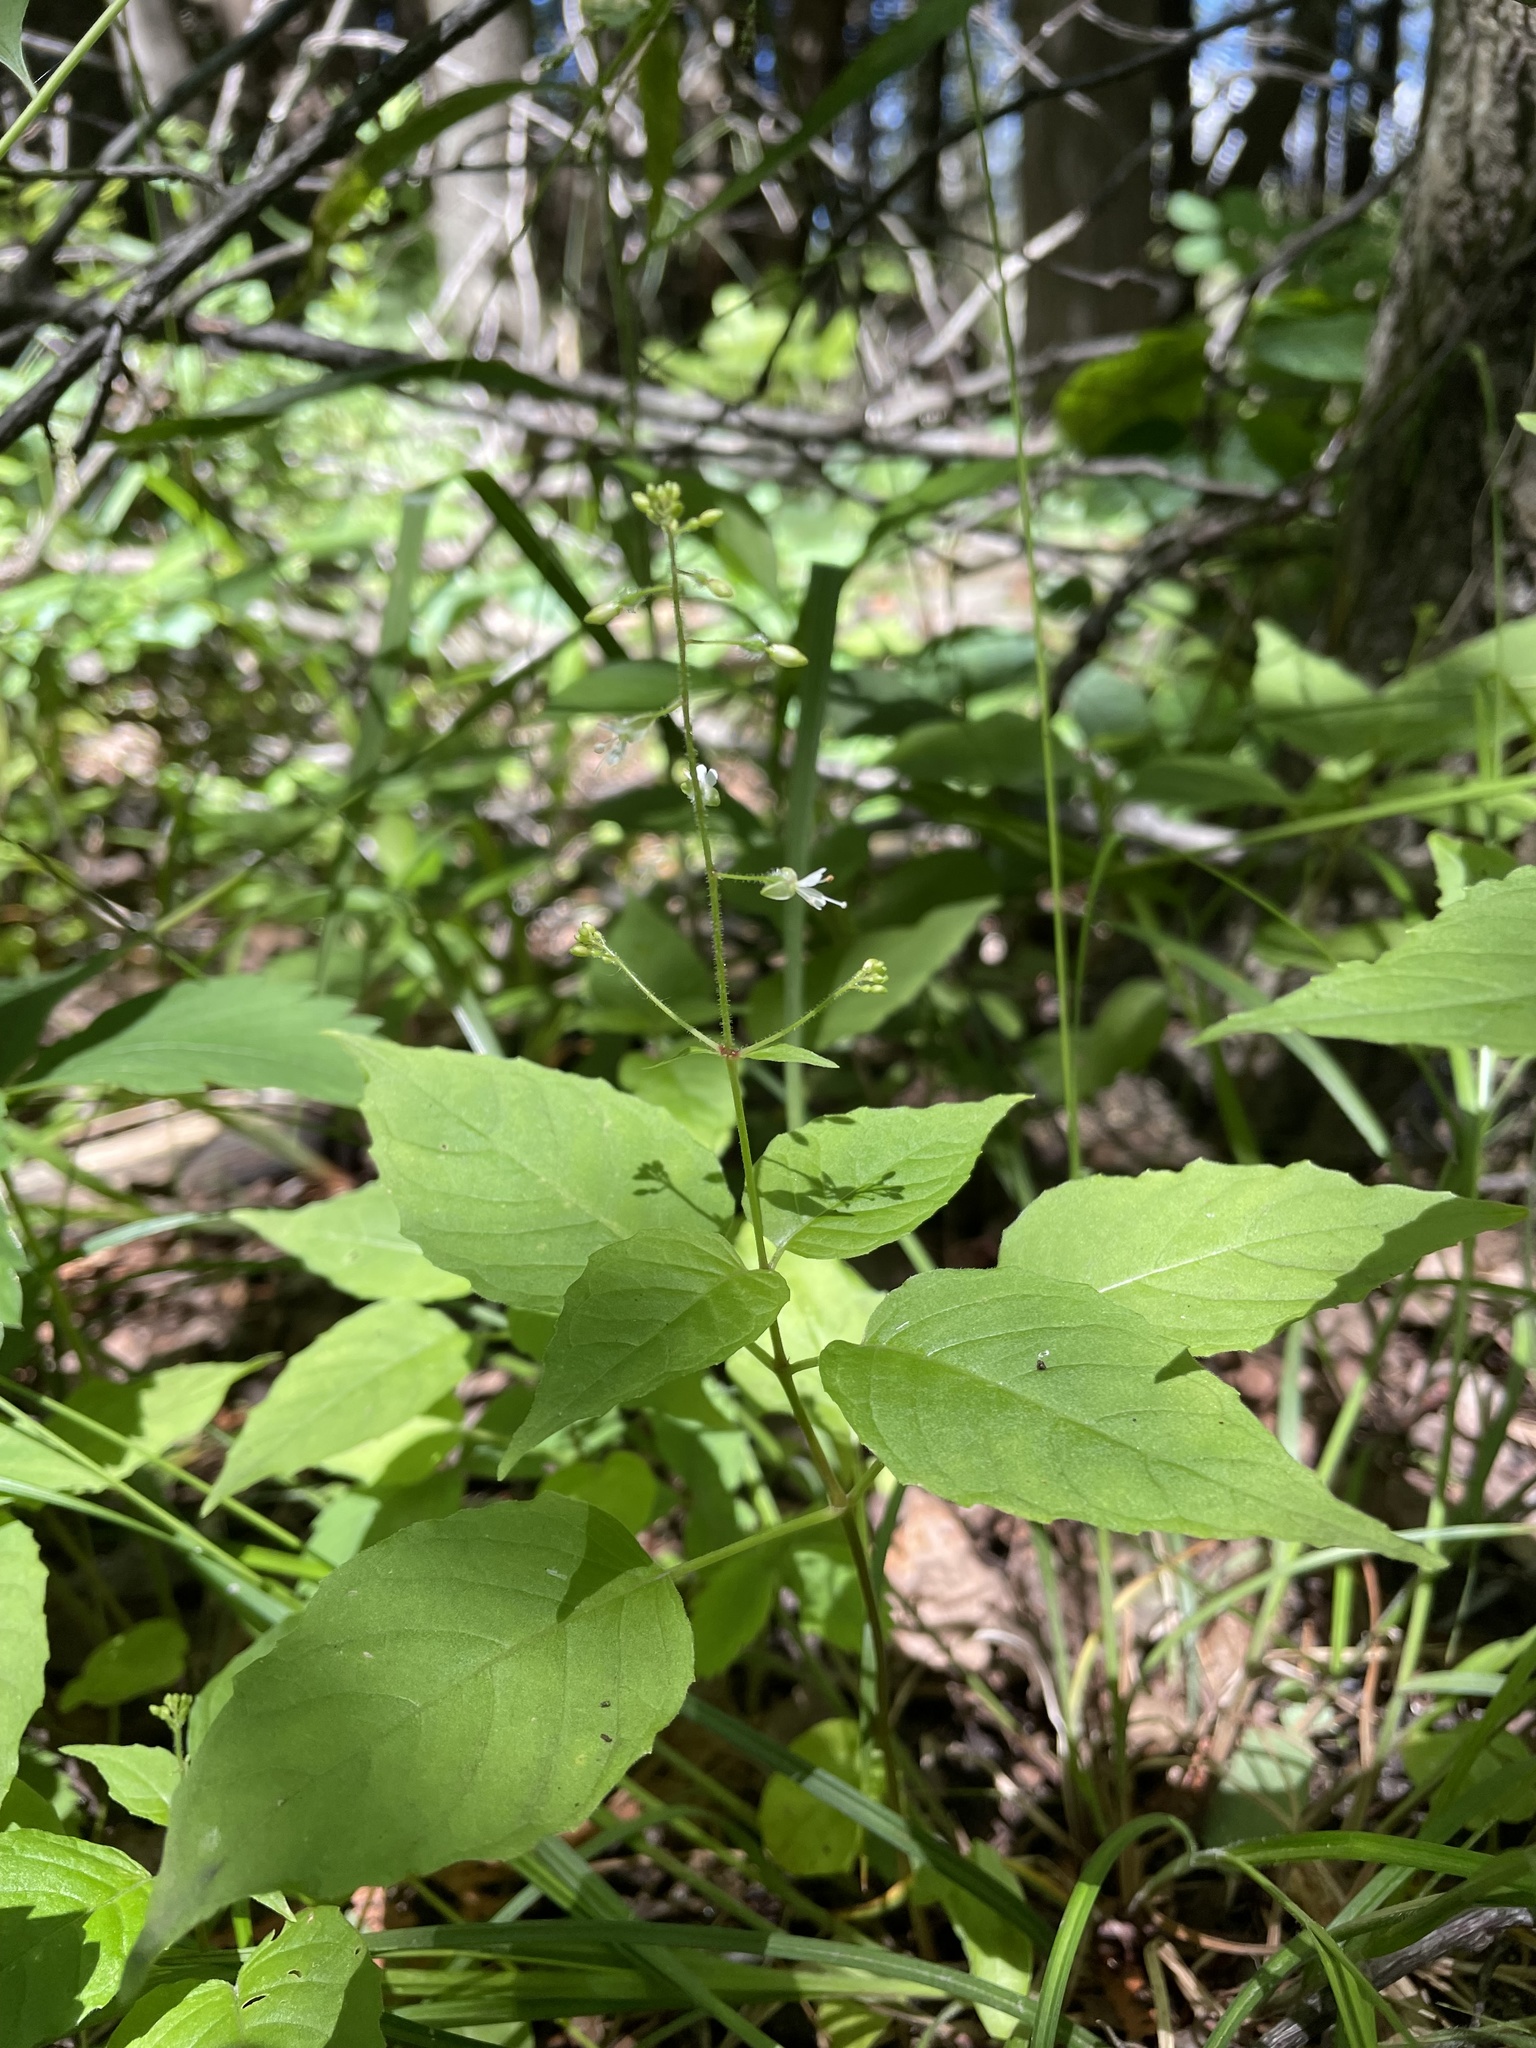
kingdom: Plantae
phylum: Tracheophyta
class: Magnoliopsida
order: Myrtales
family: Onagraceae
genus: Circaea
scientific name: Circaea canadensis
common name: Broad-leaved enchanter's nightshade
